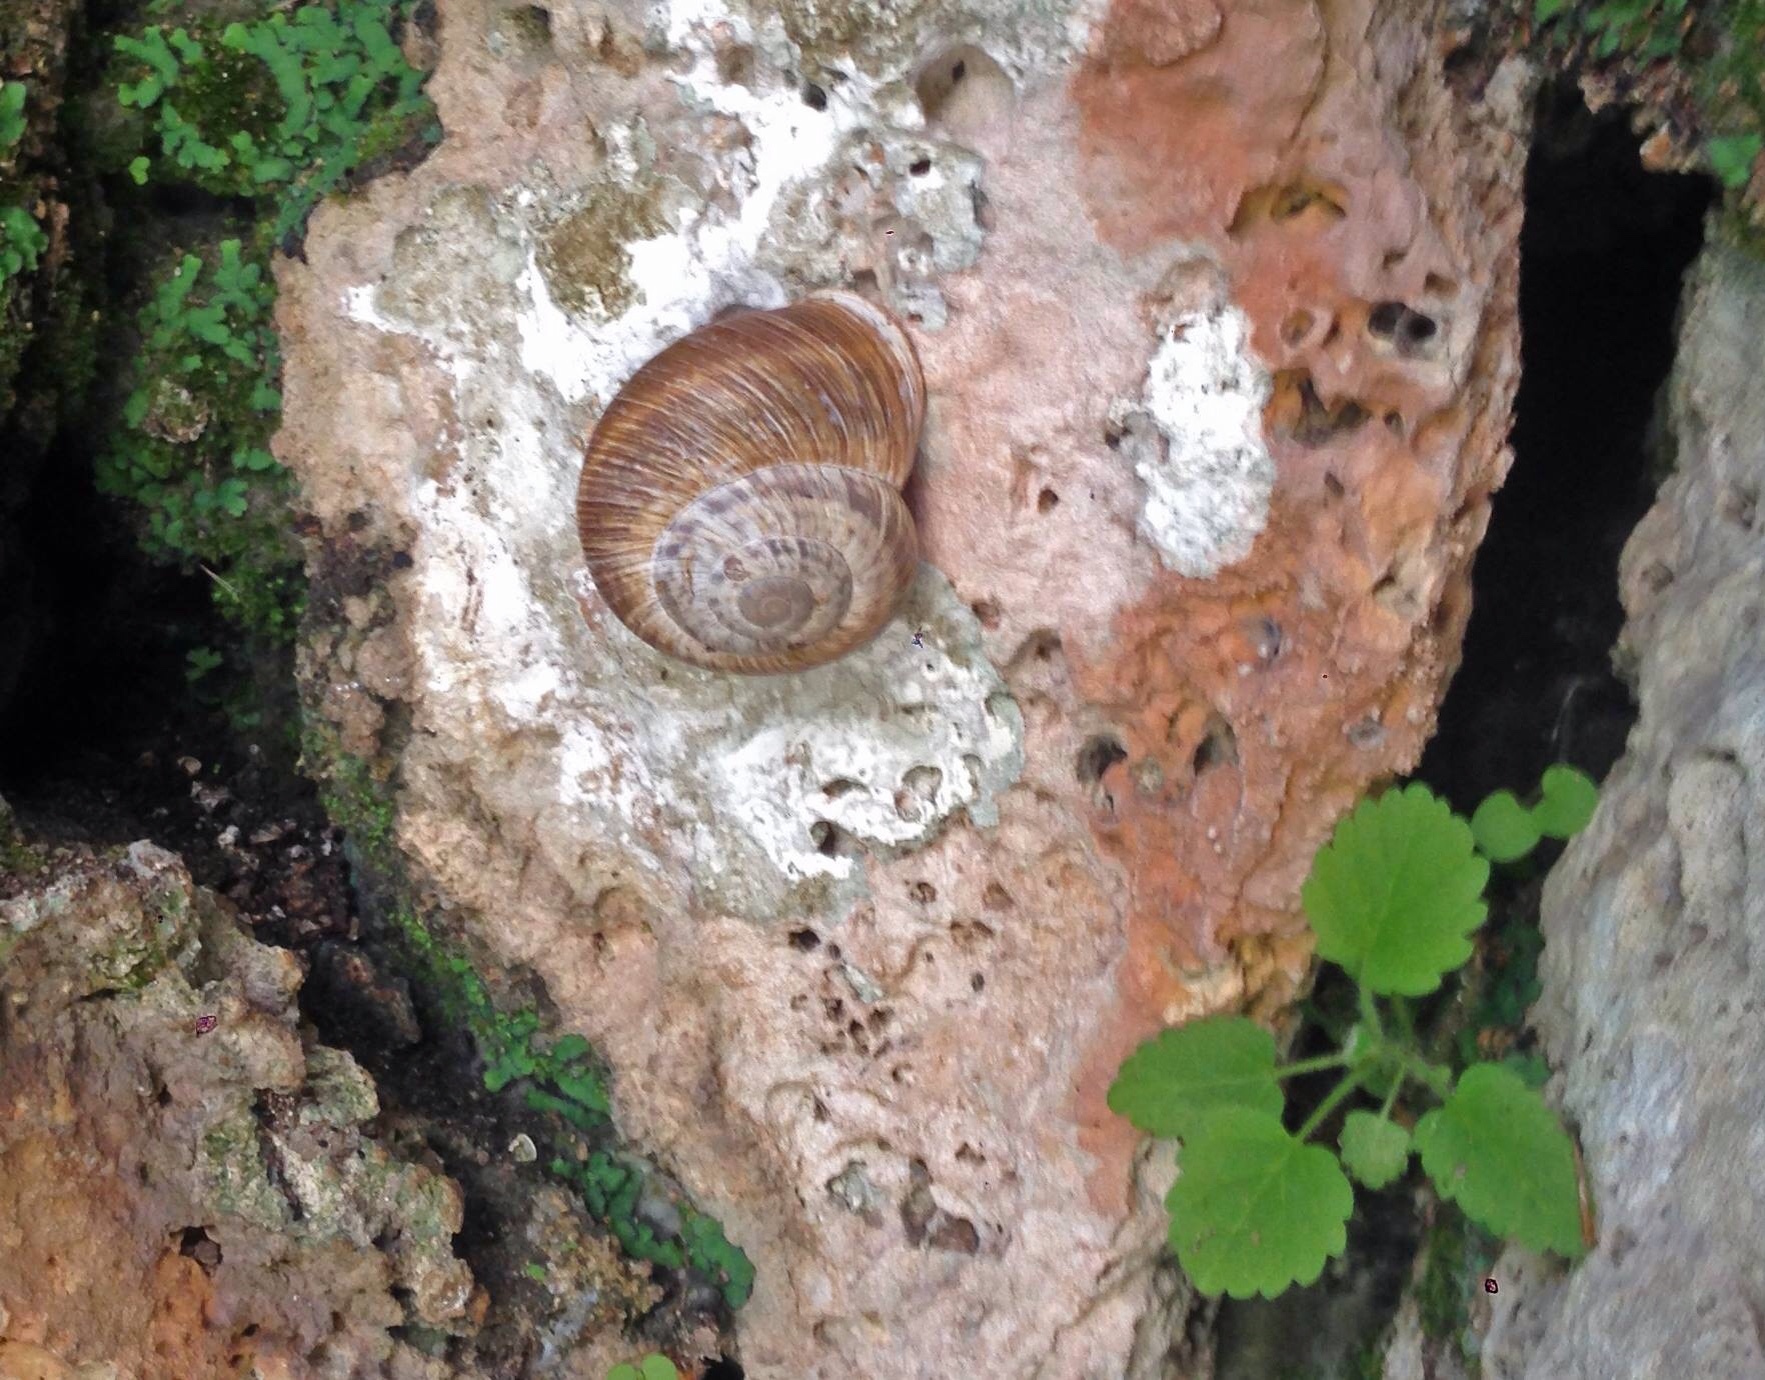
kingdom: Animalia
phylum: Mollusca
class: Gastropoda
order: Stylommatophora
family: Helicidae
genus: Neocrassa
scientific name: Neocrassa neocrassa
